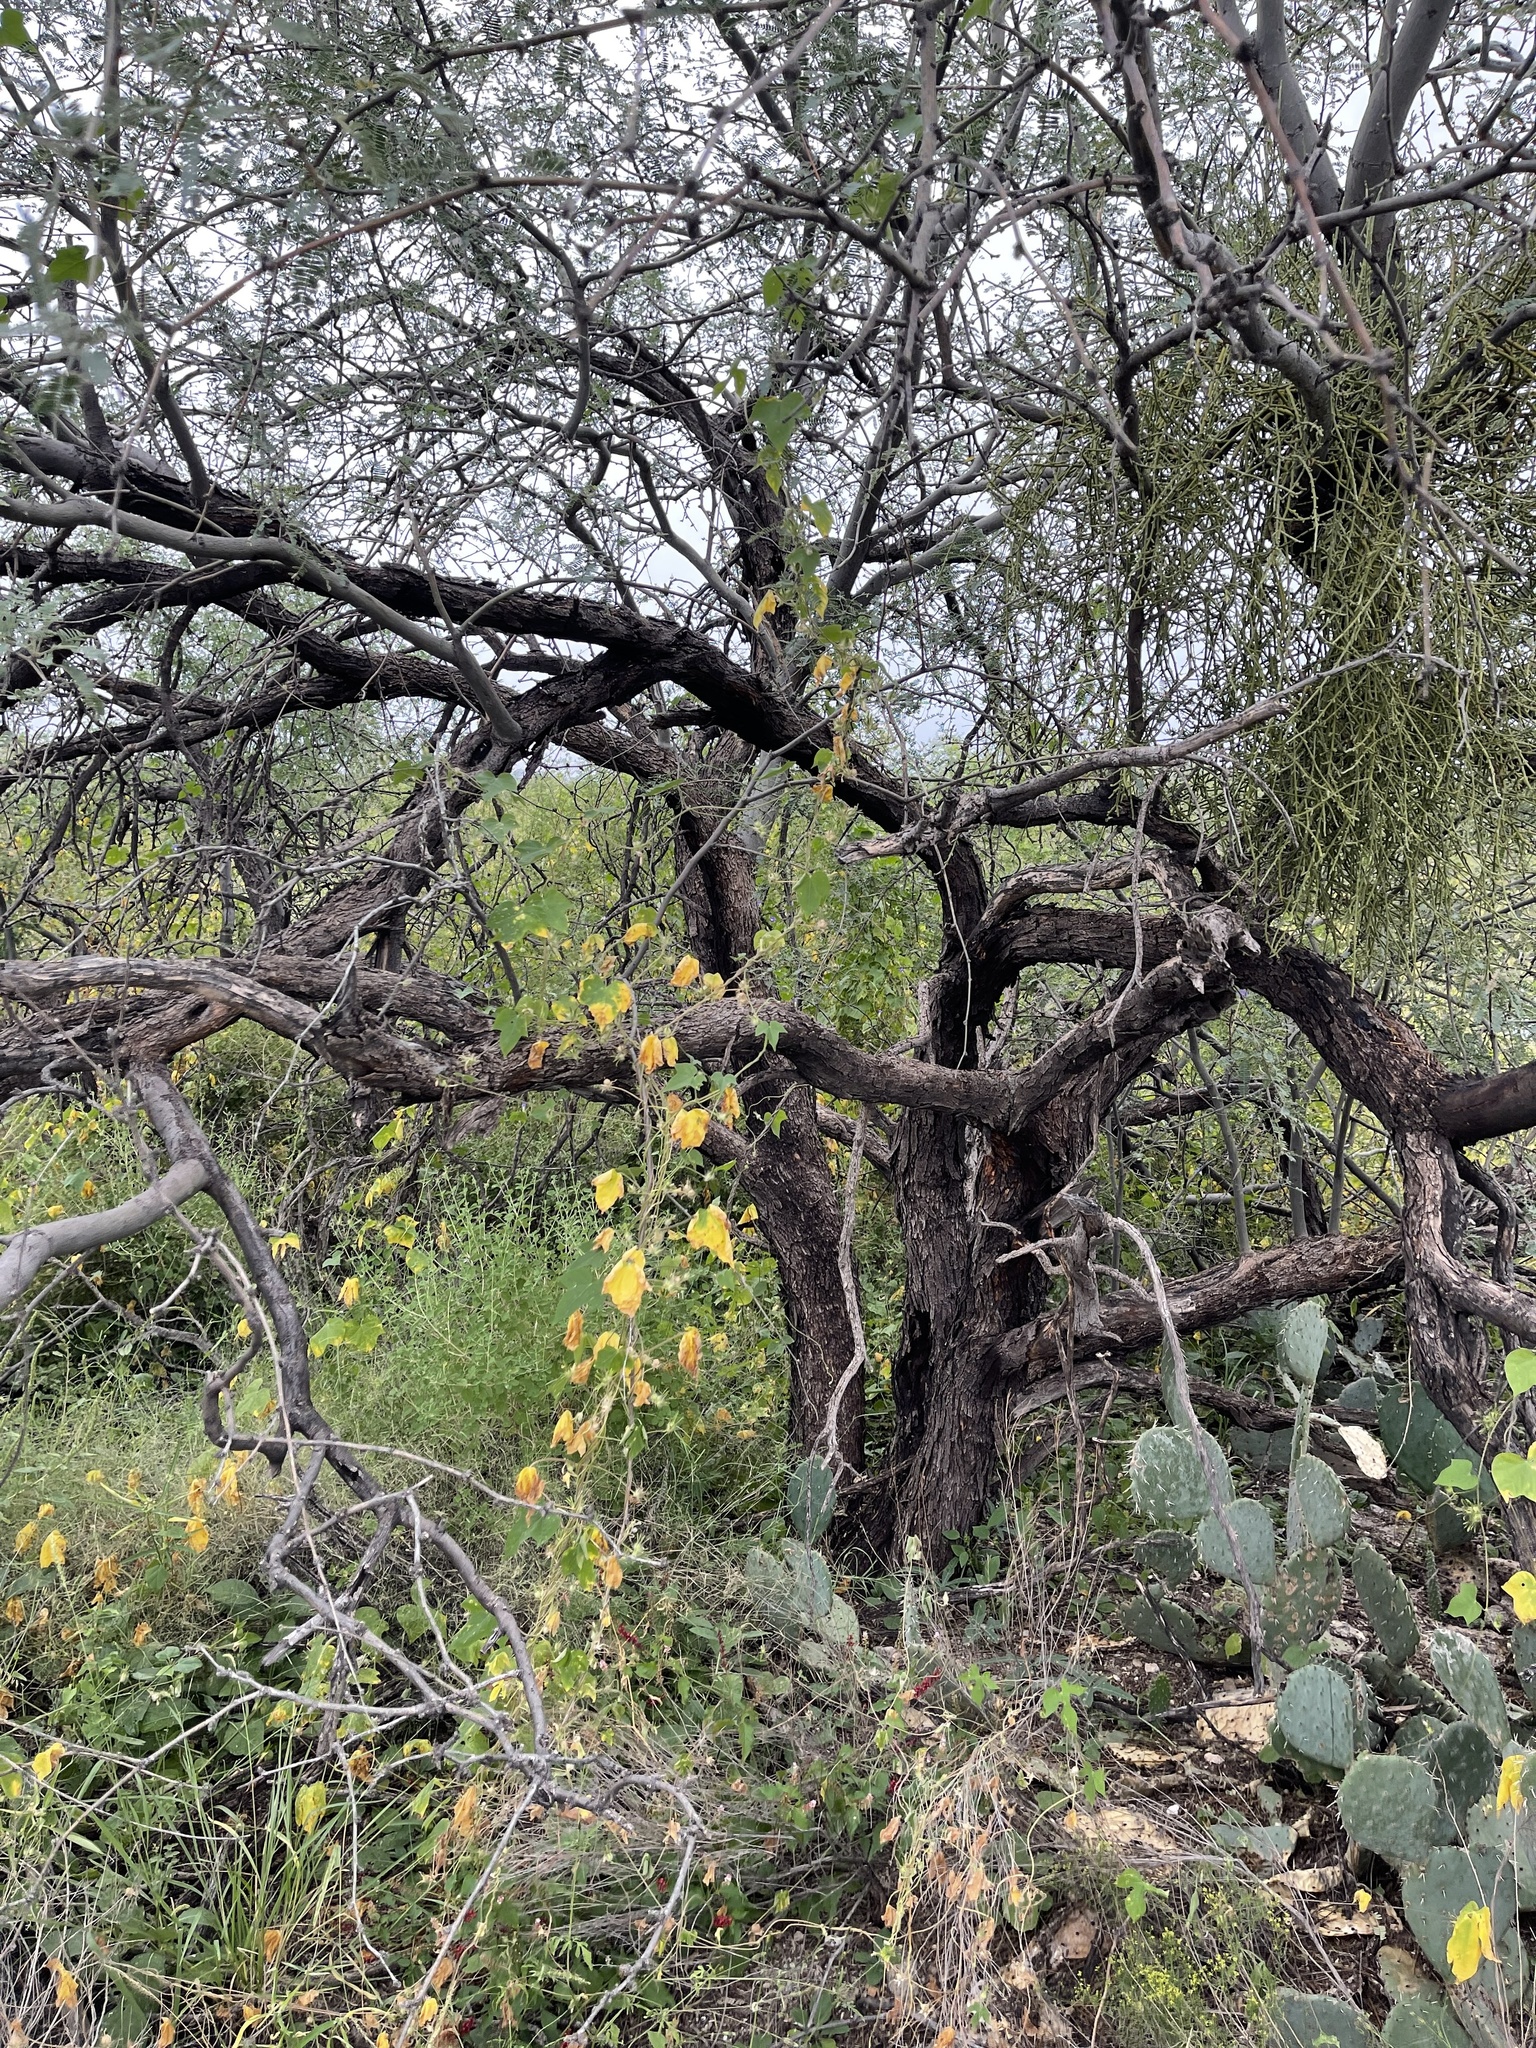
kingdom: Plantae
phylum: Tracheophyta
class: Magnoliopsida
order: Solanales
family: Convolvulaceae
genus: Ipomoea
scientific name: Ipomoea hederacea
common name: Ivy-leaved morning-glory
